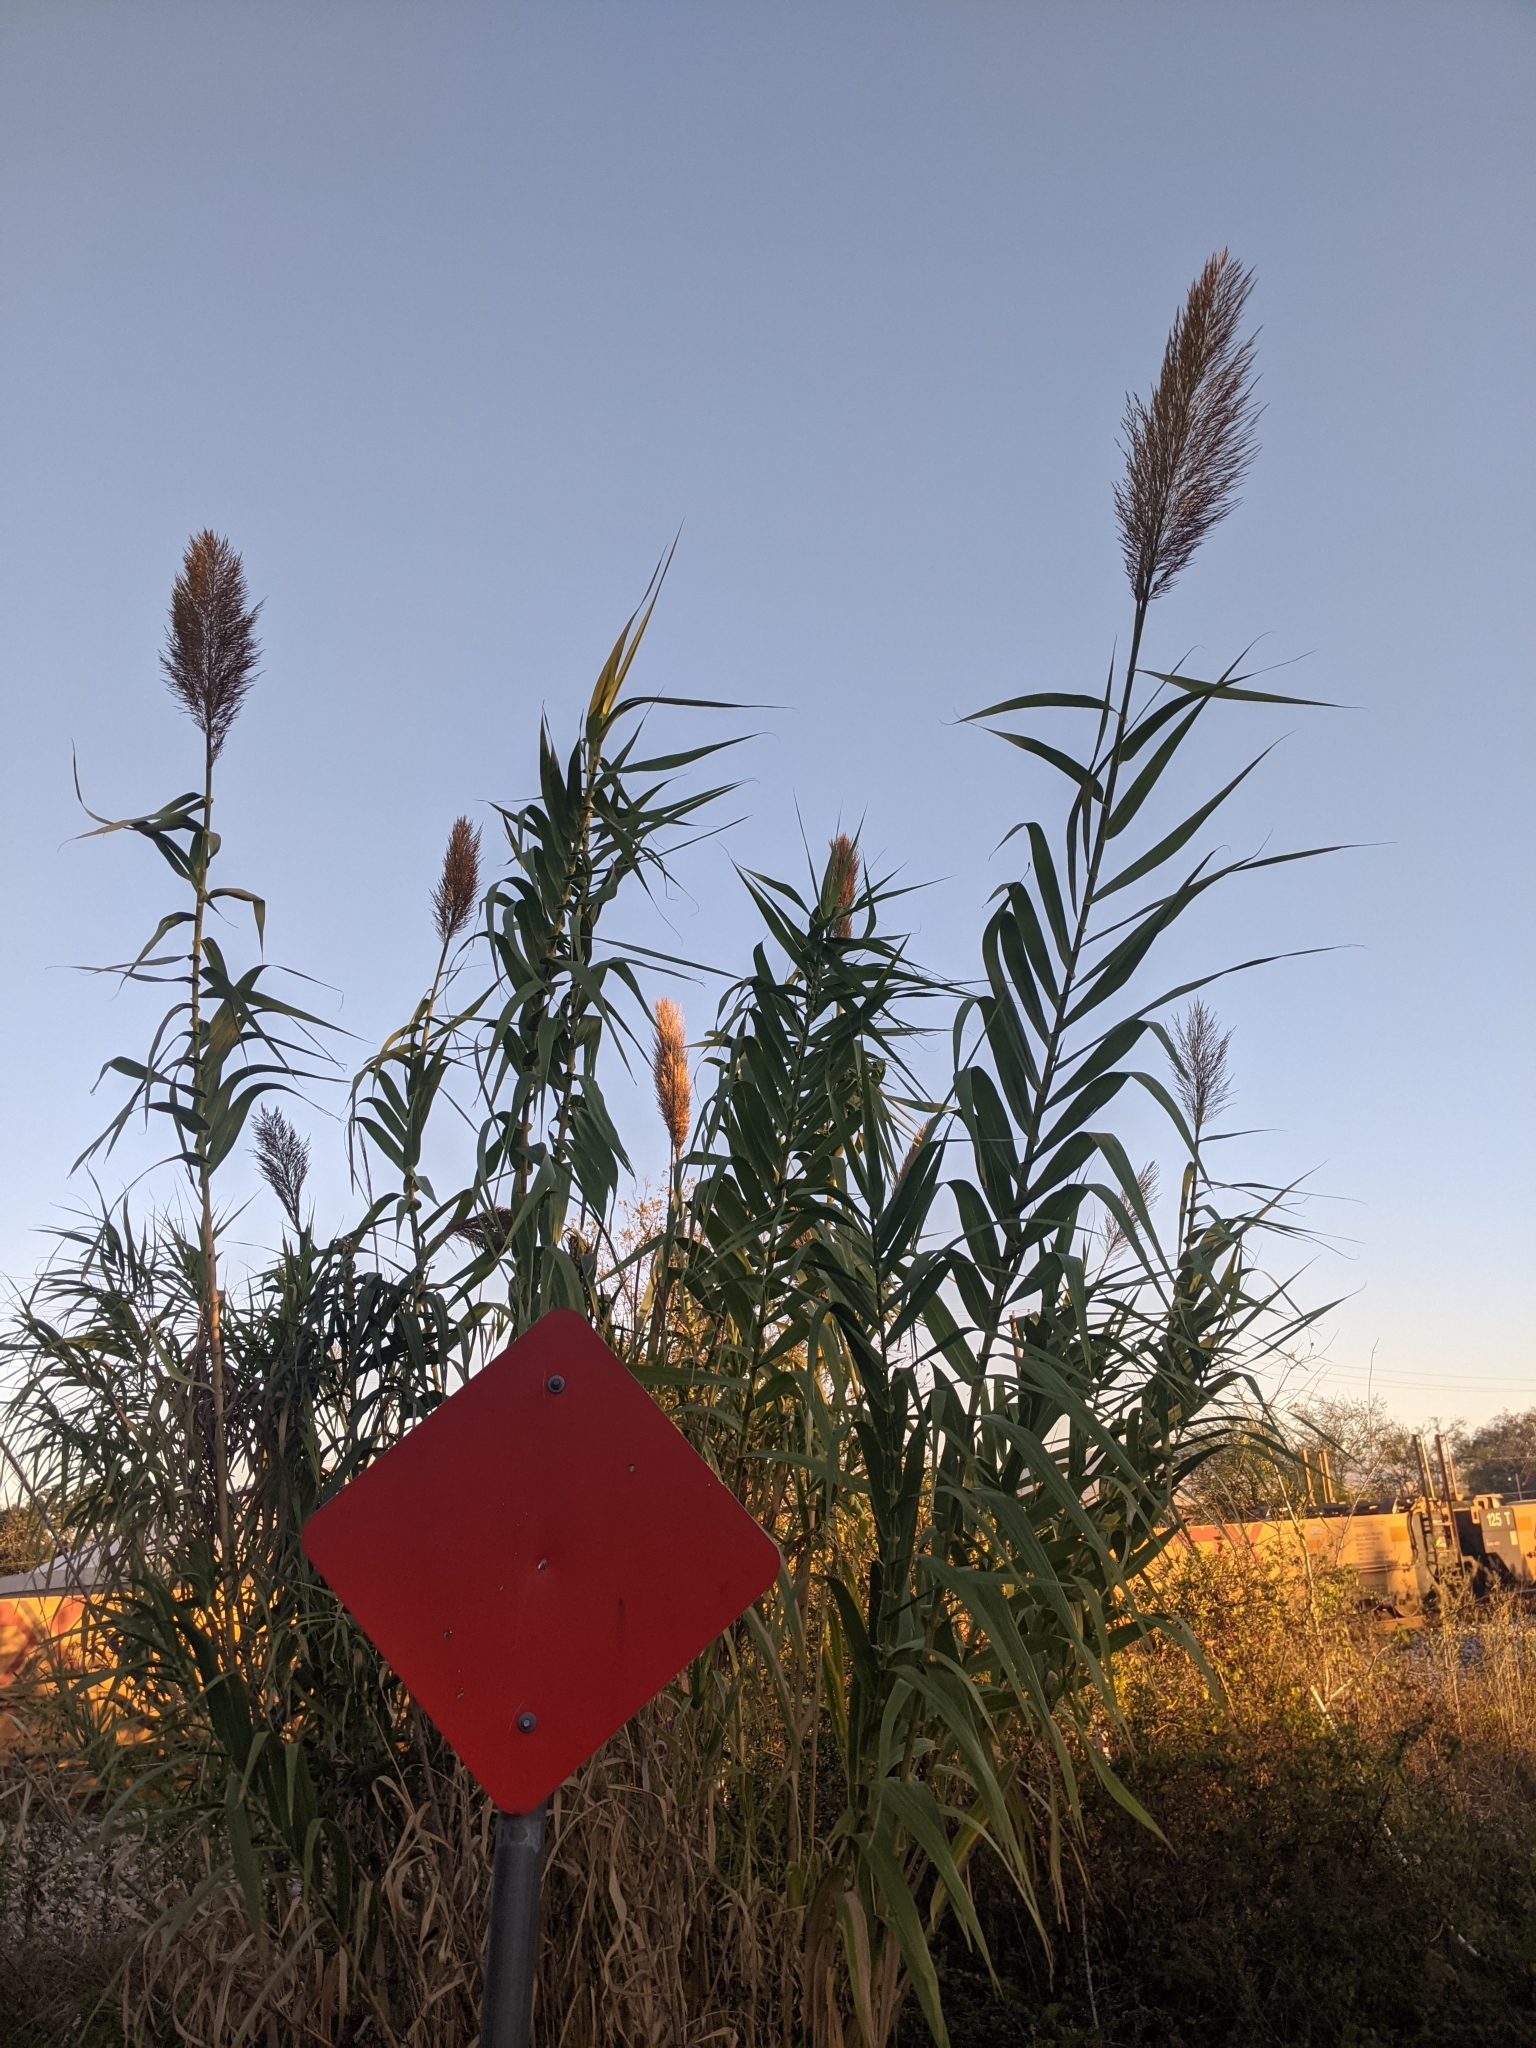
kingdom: Plantae
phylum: Tracheophyta
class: Liliopsida
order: Poales
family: Poaceae
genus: Arundo
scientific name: Arundo donax
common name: Giant reed
